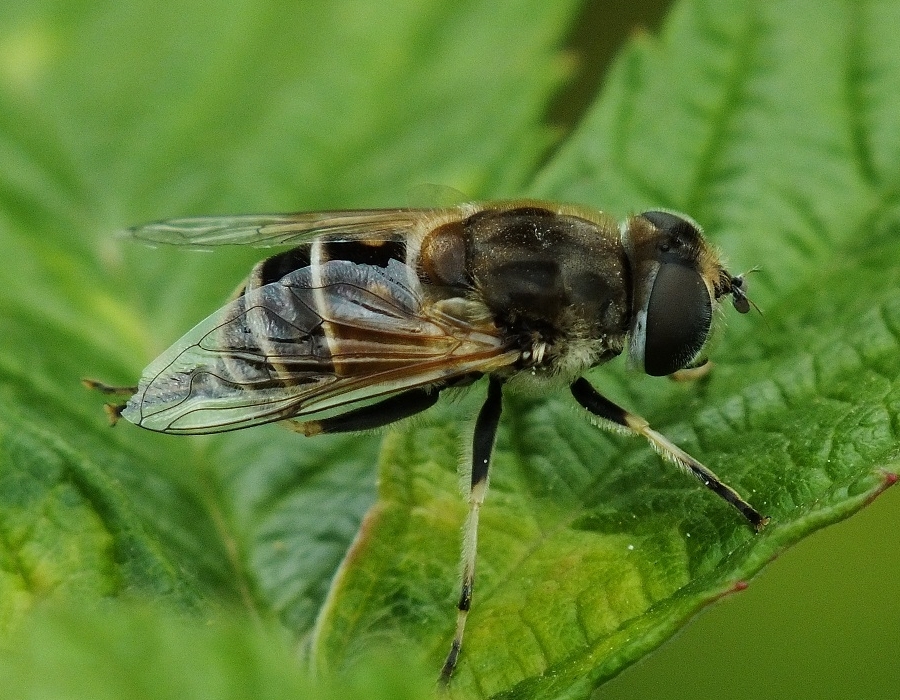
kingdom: Animalia
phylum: Arthropoda
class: Insecta
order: Diptera
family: Syrphidae
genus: Eristalis
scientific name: Eristalis arbustorum
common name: Hover fly
